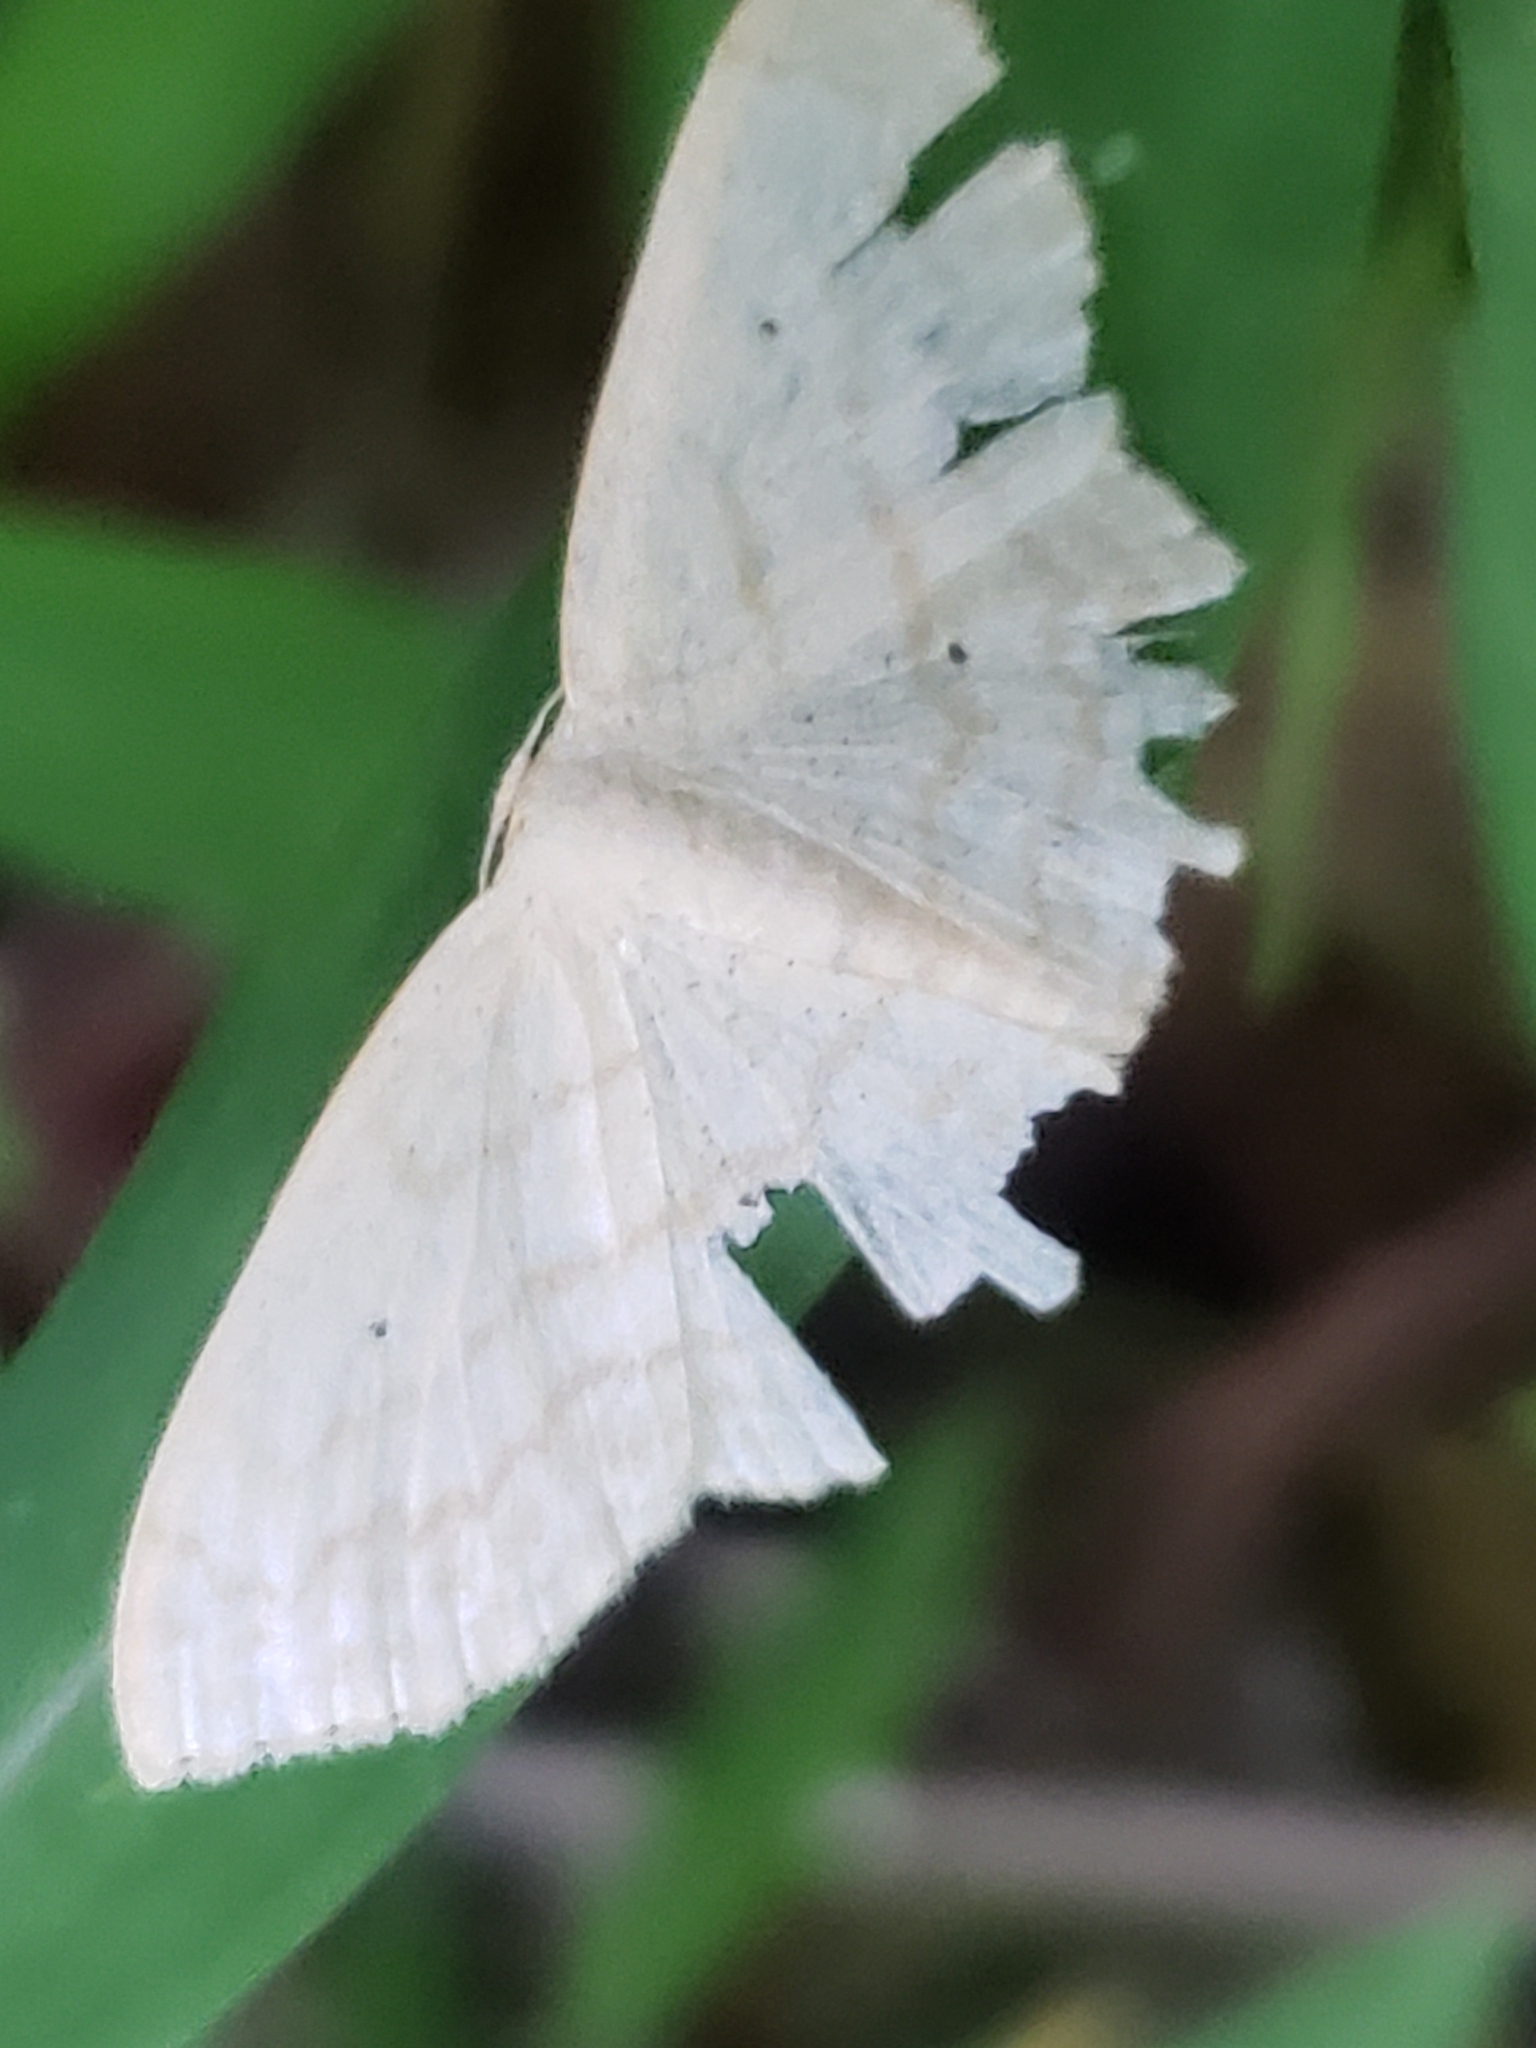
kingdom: Animalia
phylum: Arthropoda
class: Insecta
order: Lepidoptera
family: Geometridae
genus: Scopula
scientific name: Scopula limboundata
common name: Large lace border
